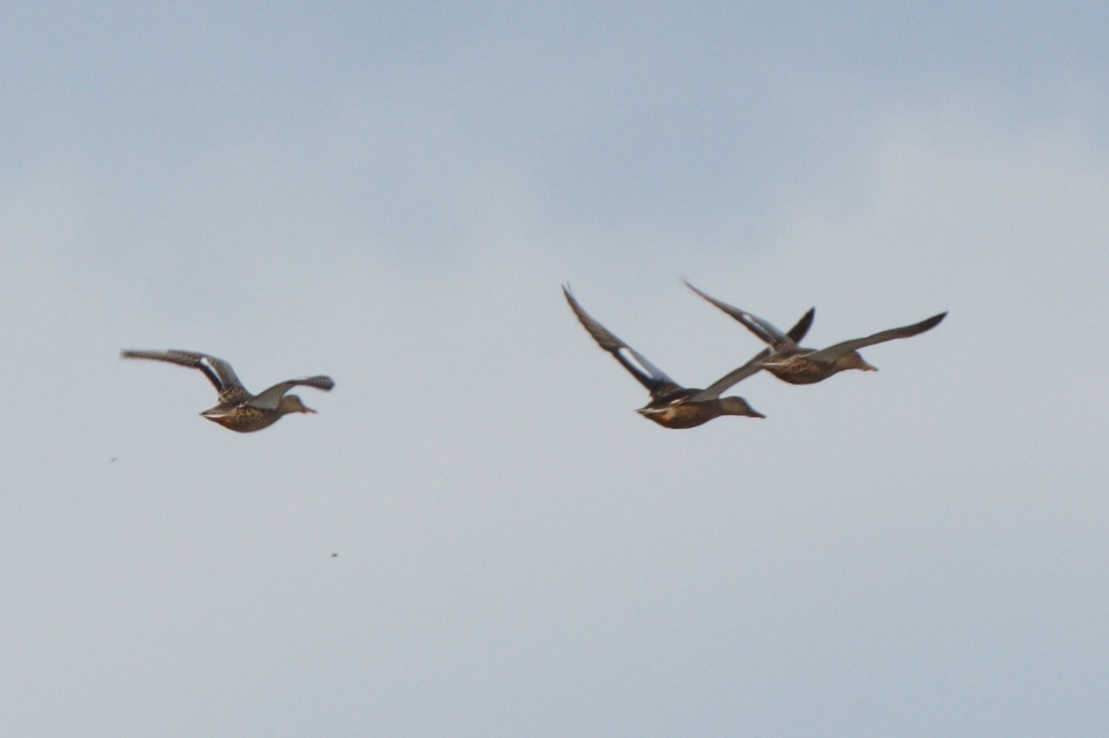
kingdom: Animalia
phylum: Chordata
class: Aves
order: Anseriformes
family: Anatidae
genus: Spatula
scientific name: Spatula clypeata
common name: Northern shoveler
